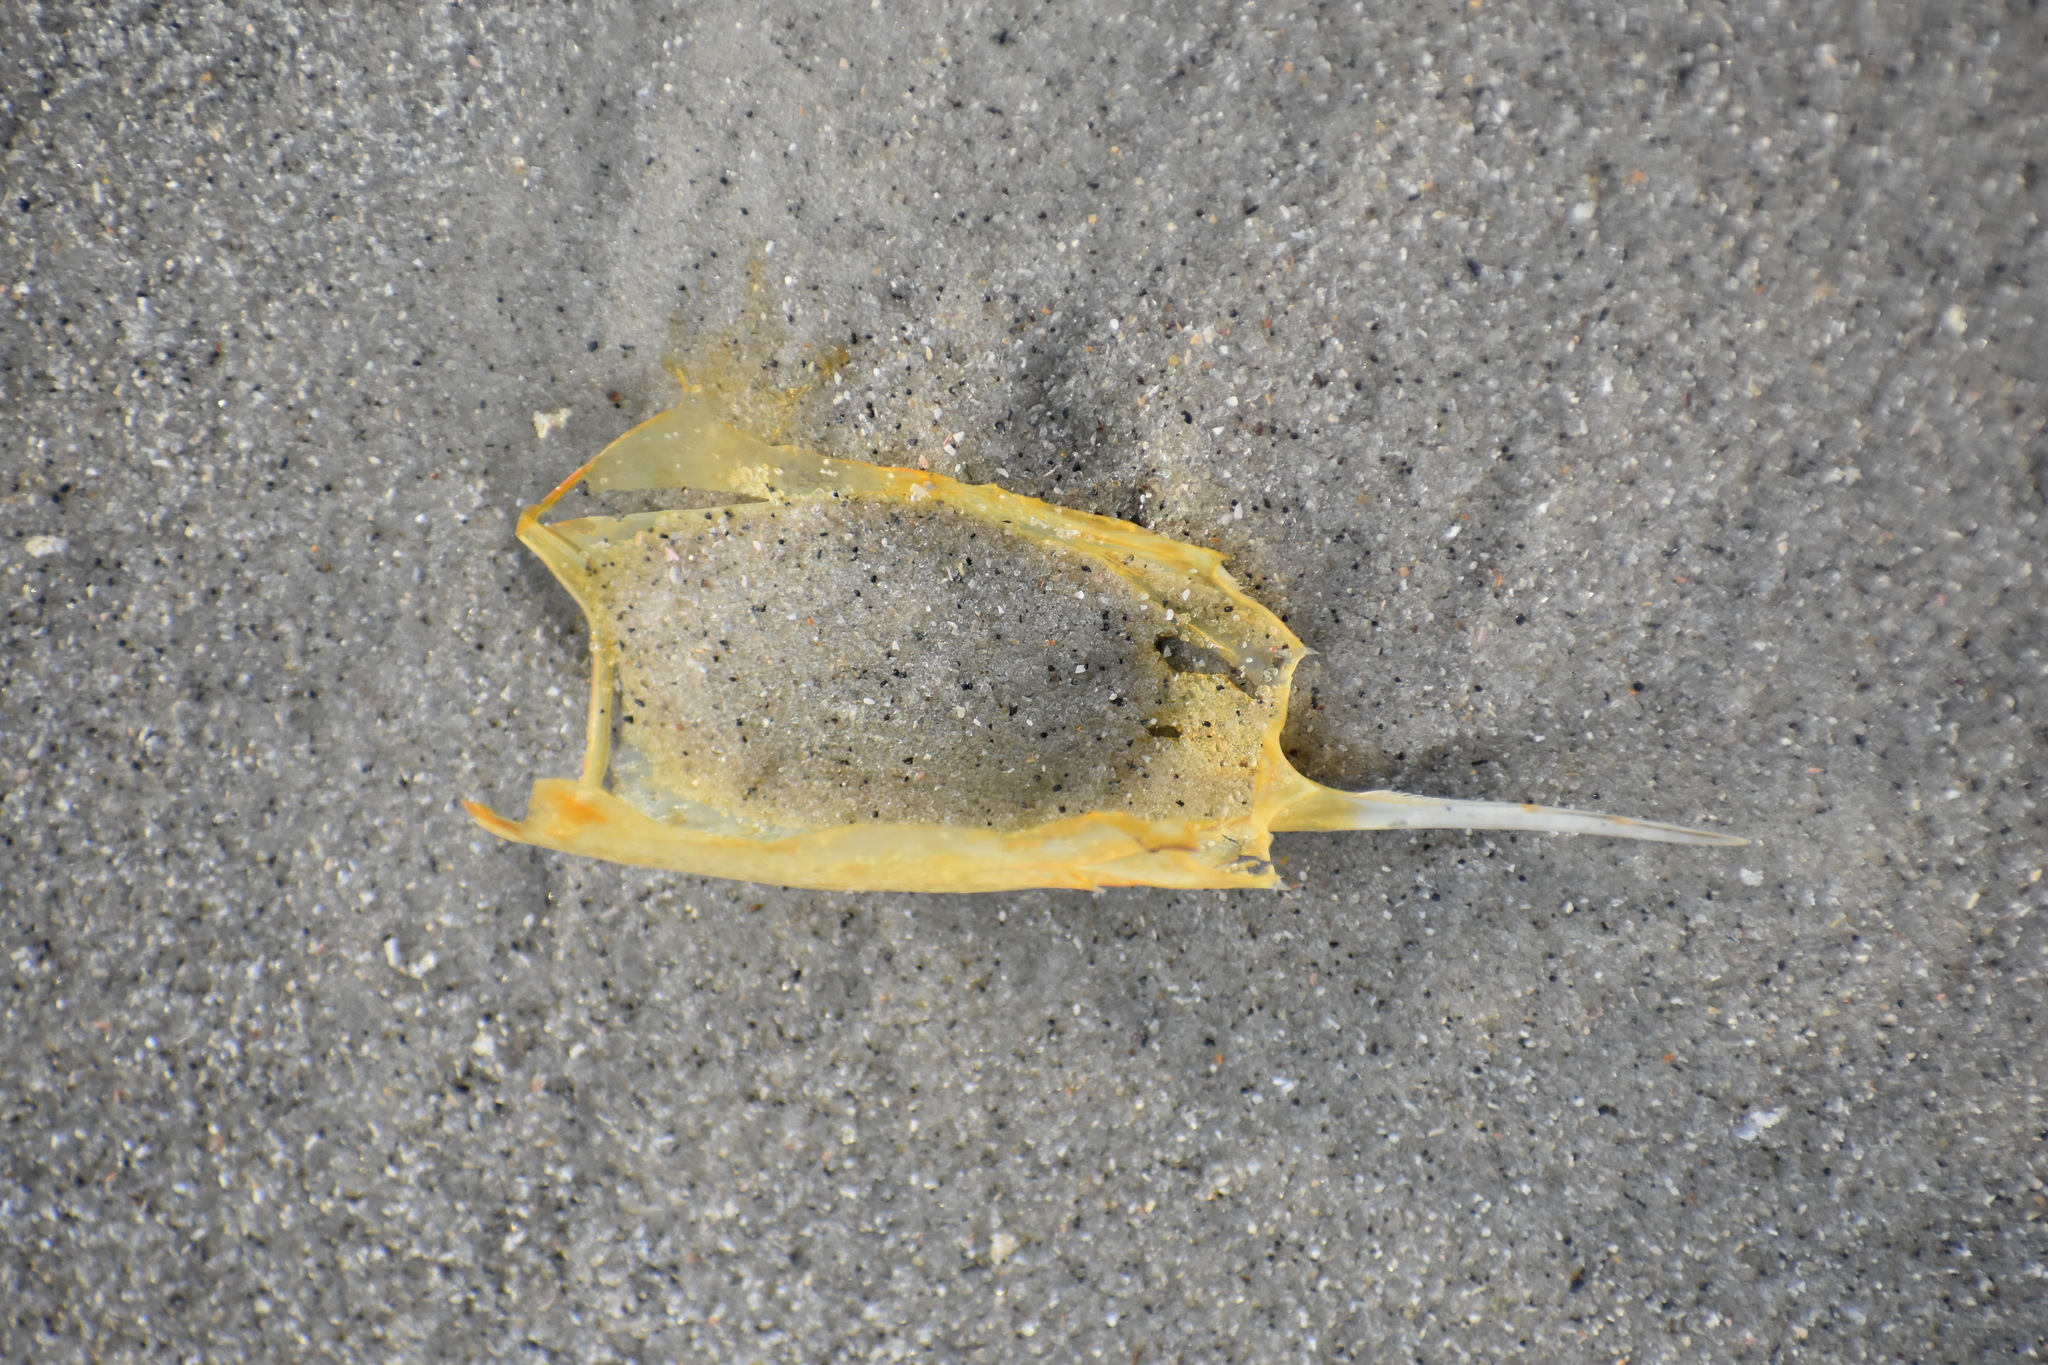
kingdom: Animalia
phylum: Arthropoda
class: Malacostraca
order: Decapoda
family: Penaeidae
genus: Penaeus
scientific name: Penaeus setiferus
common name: Northern white shrimp
